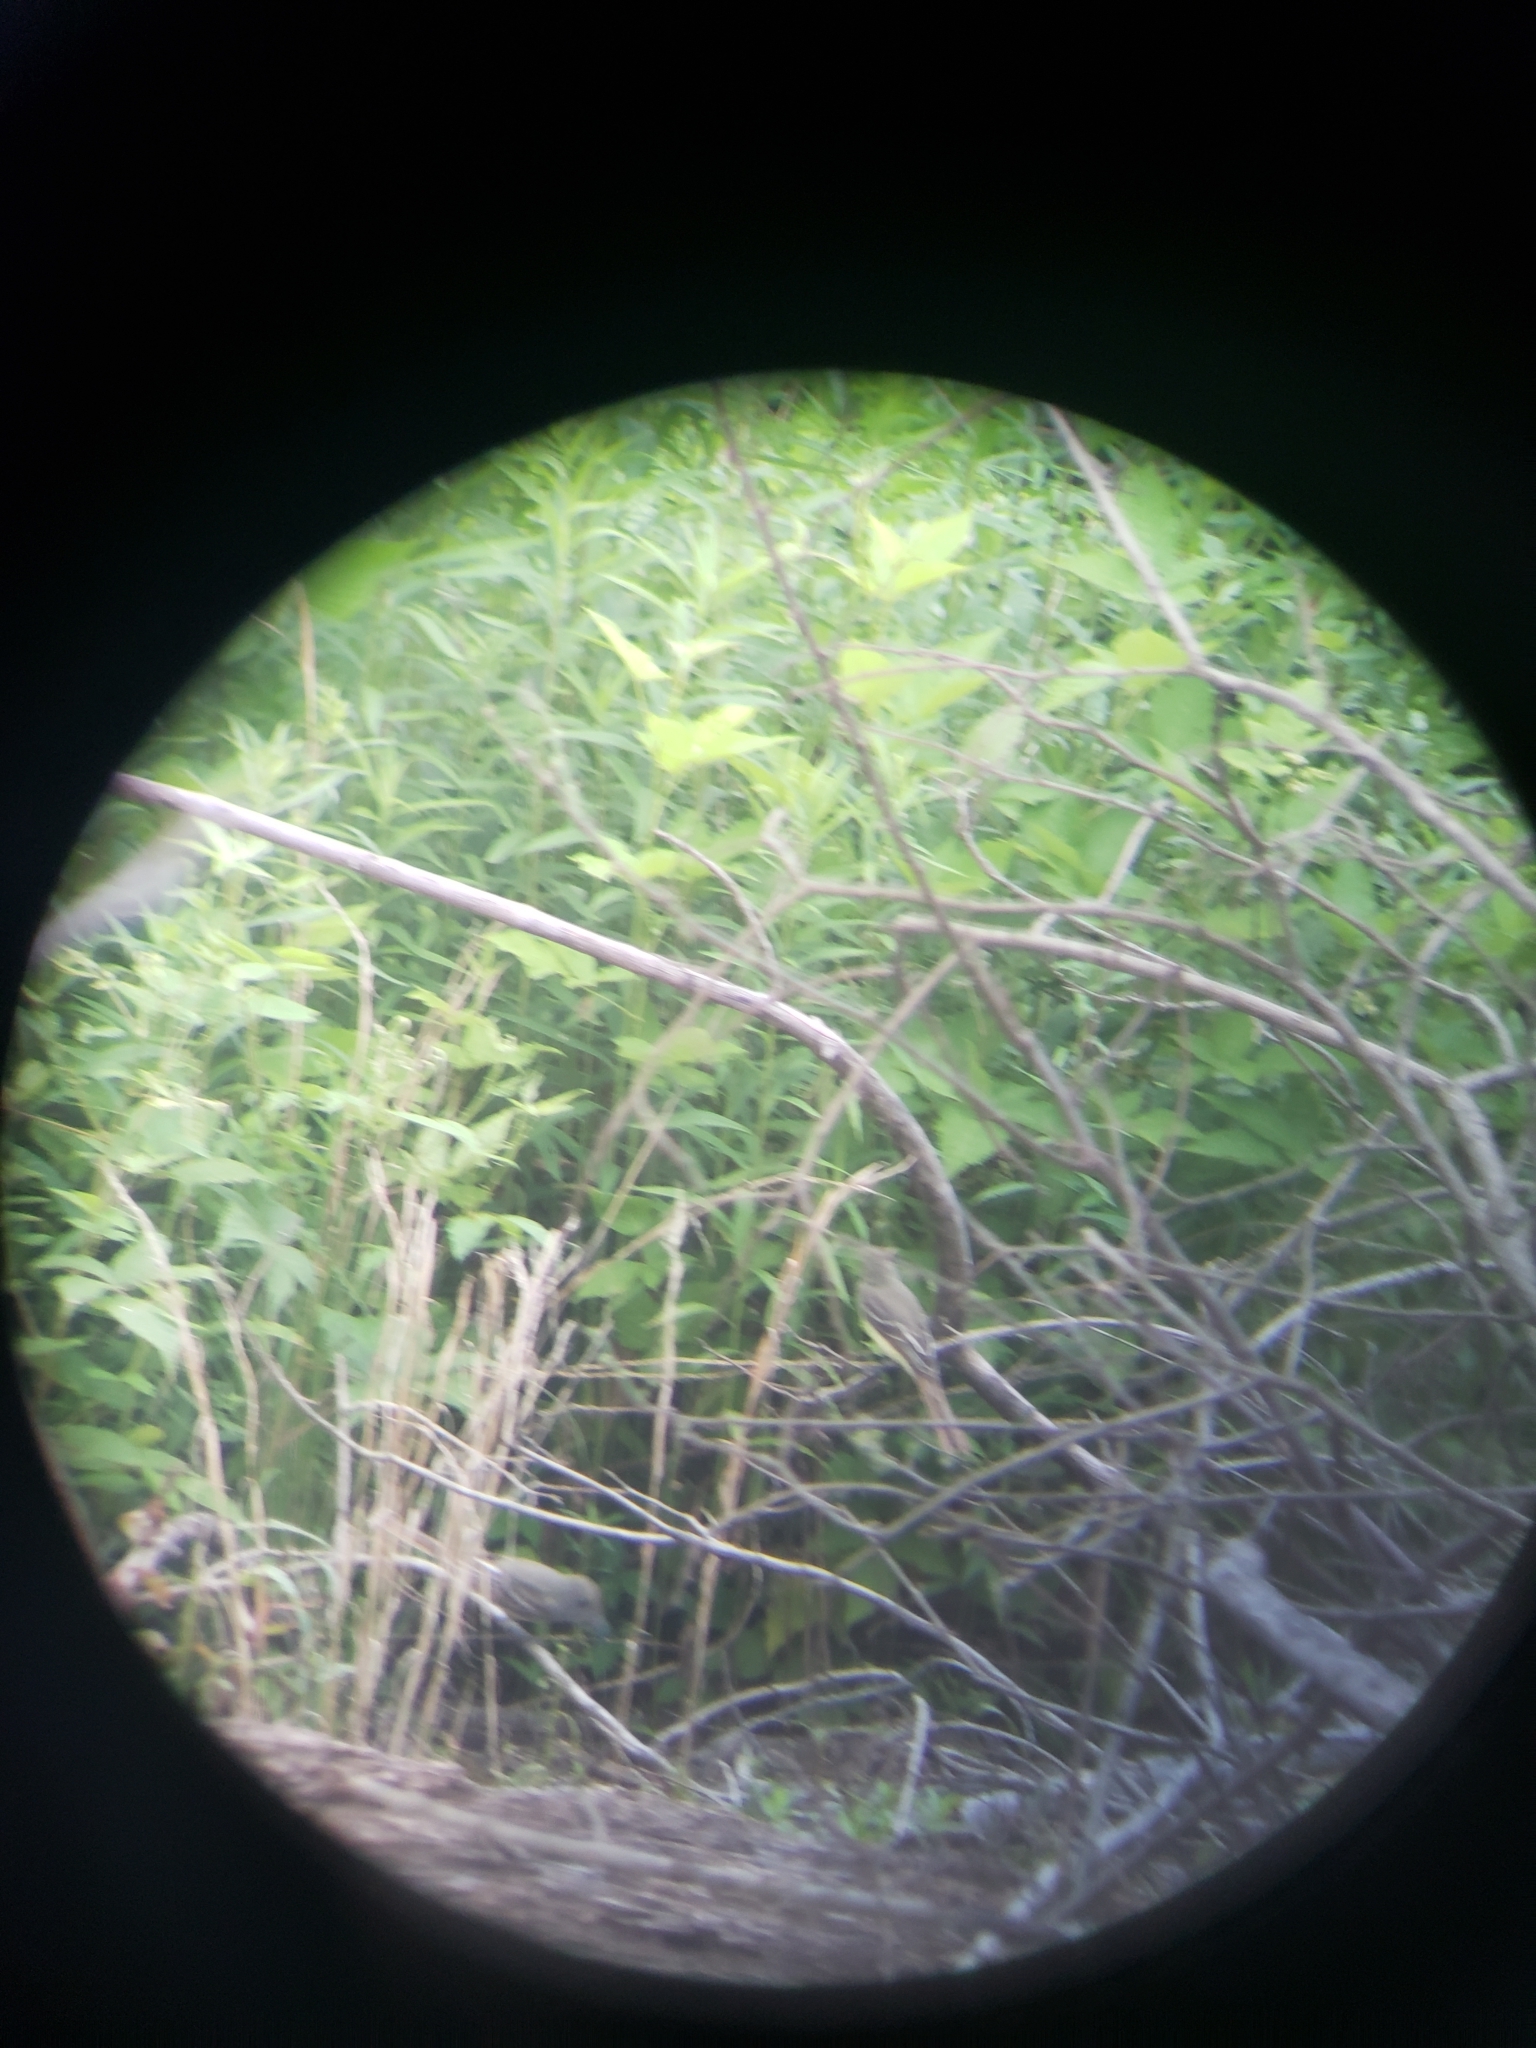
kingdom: Animalia
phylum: Chordata
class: Aves
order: Passeriformes
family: Tyrannidae
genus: Myiarchus
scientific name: Myiarchus crinitus
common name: Great crested flycatcher
